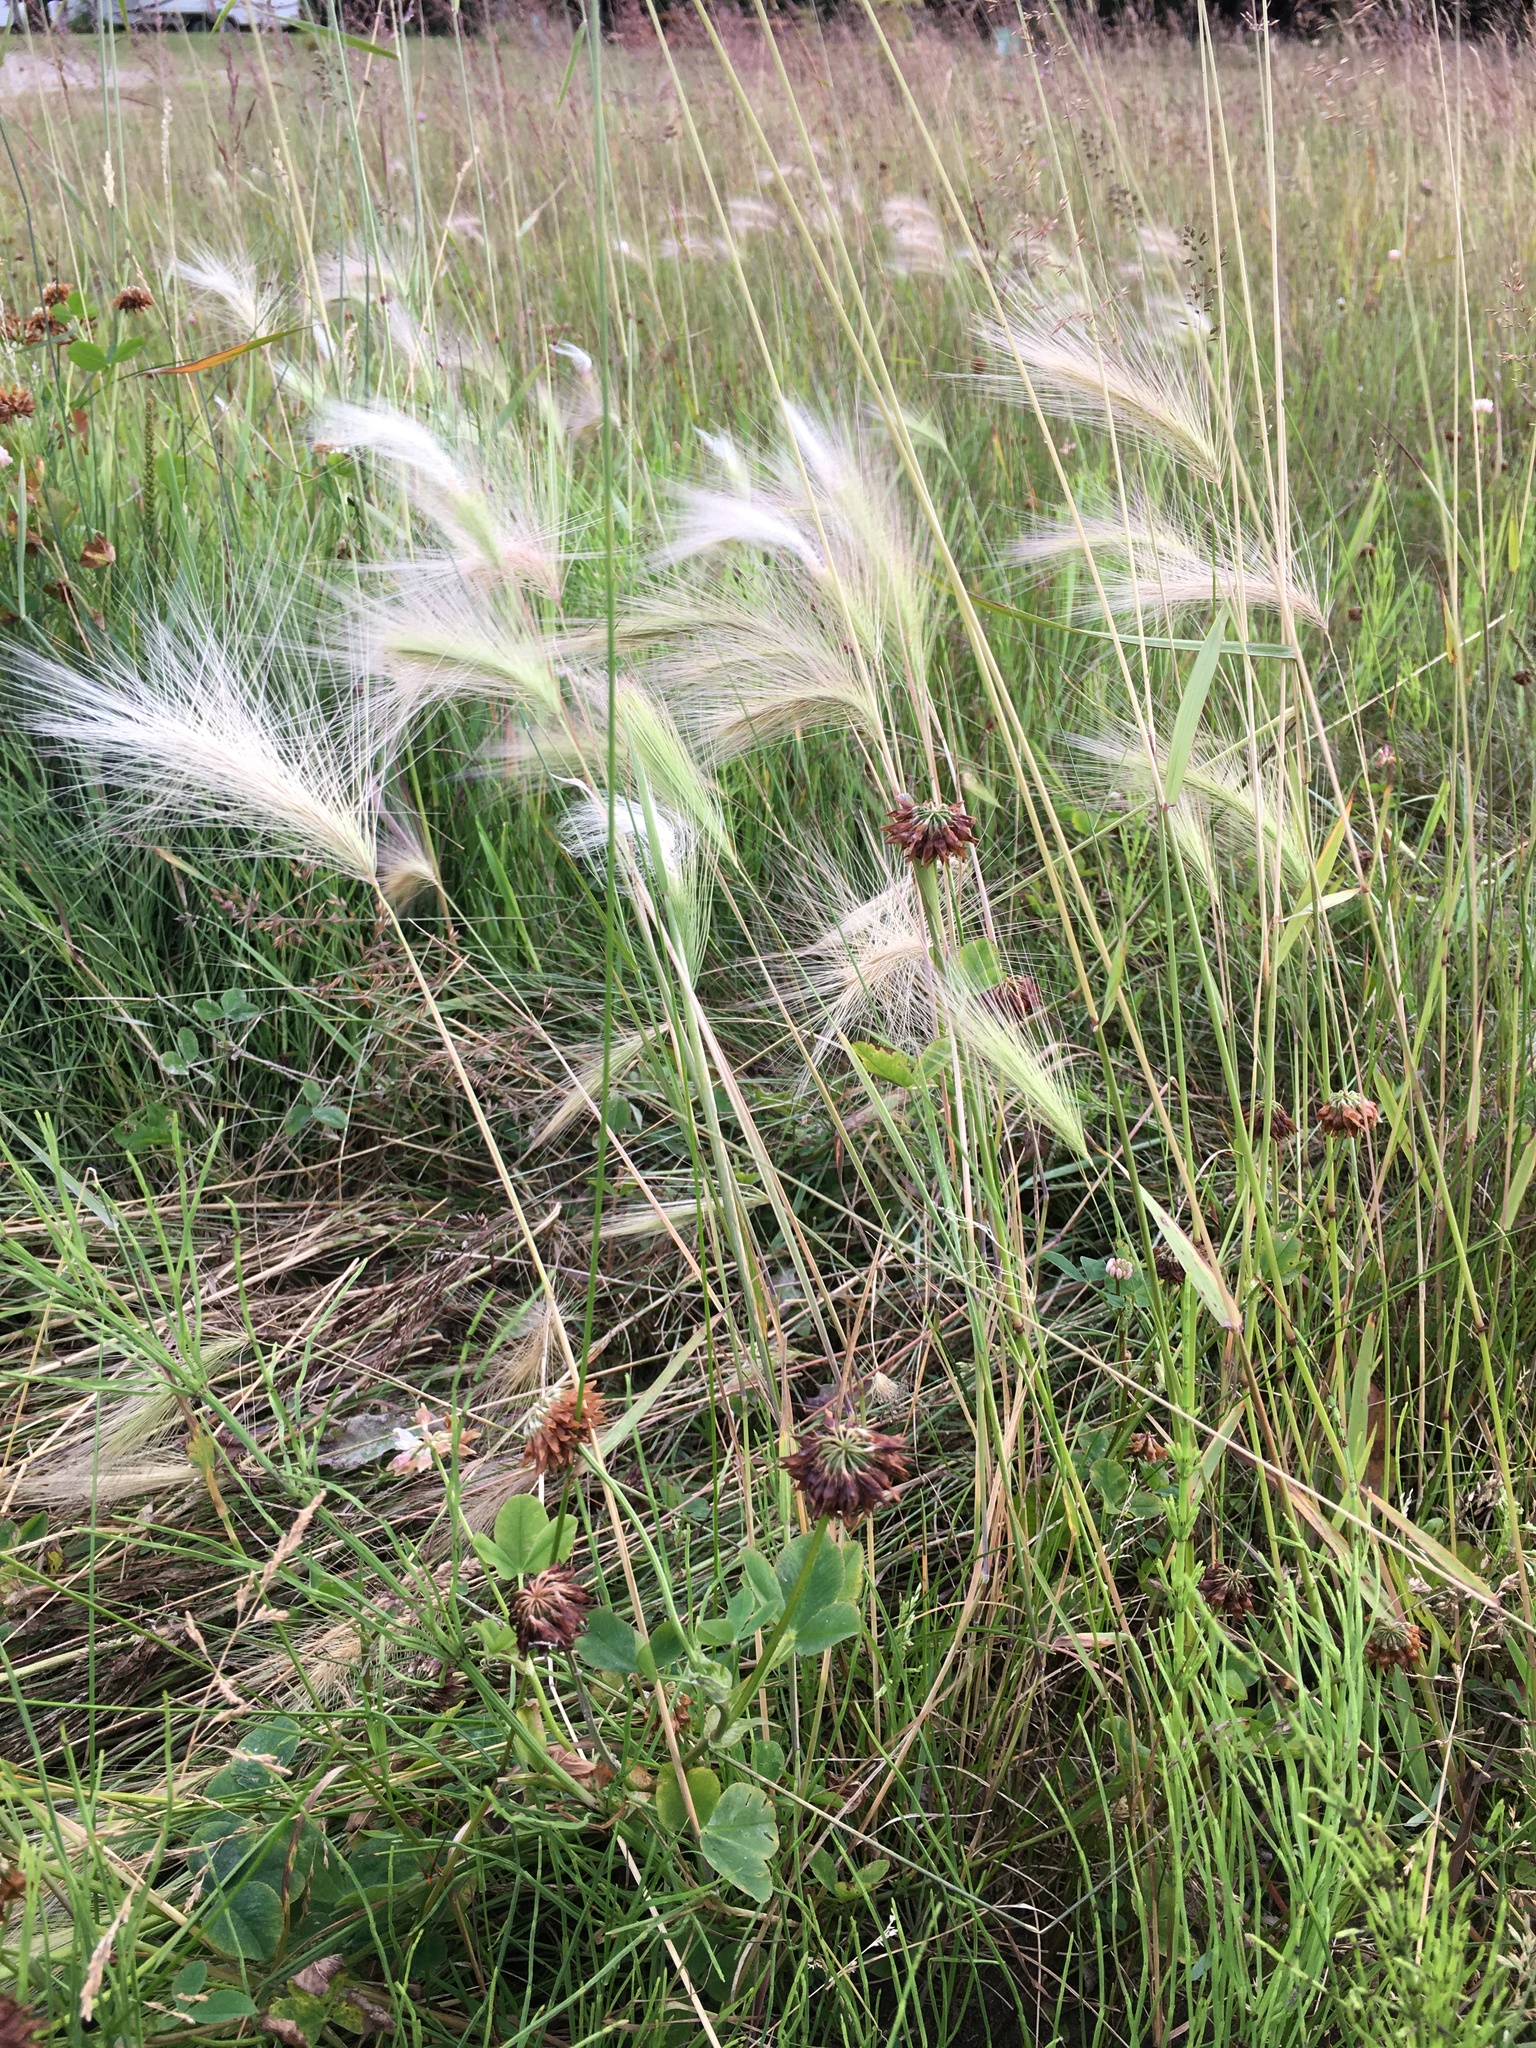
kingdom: Plantae
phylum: Tracheophyta
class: Liliopsida
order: Poales
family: Poaceae
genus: Hordeum
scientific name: Hordeum jubatum
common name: Foxtail barley
